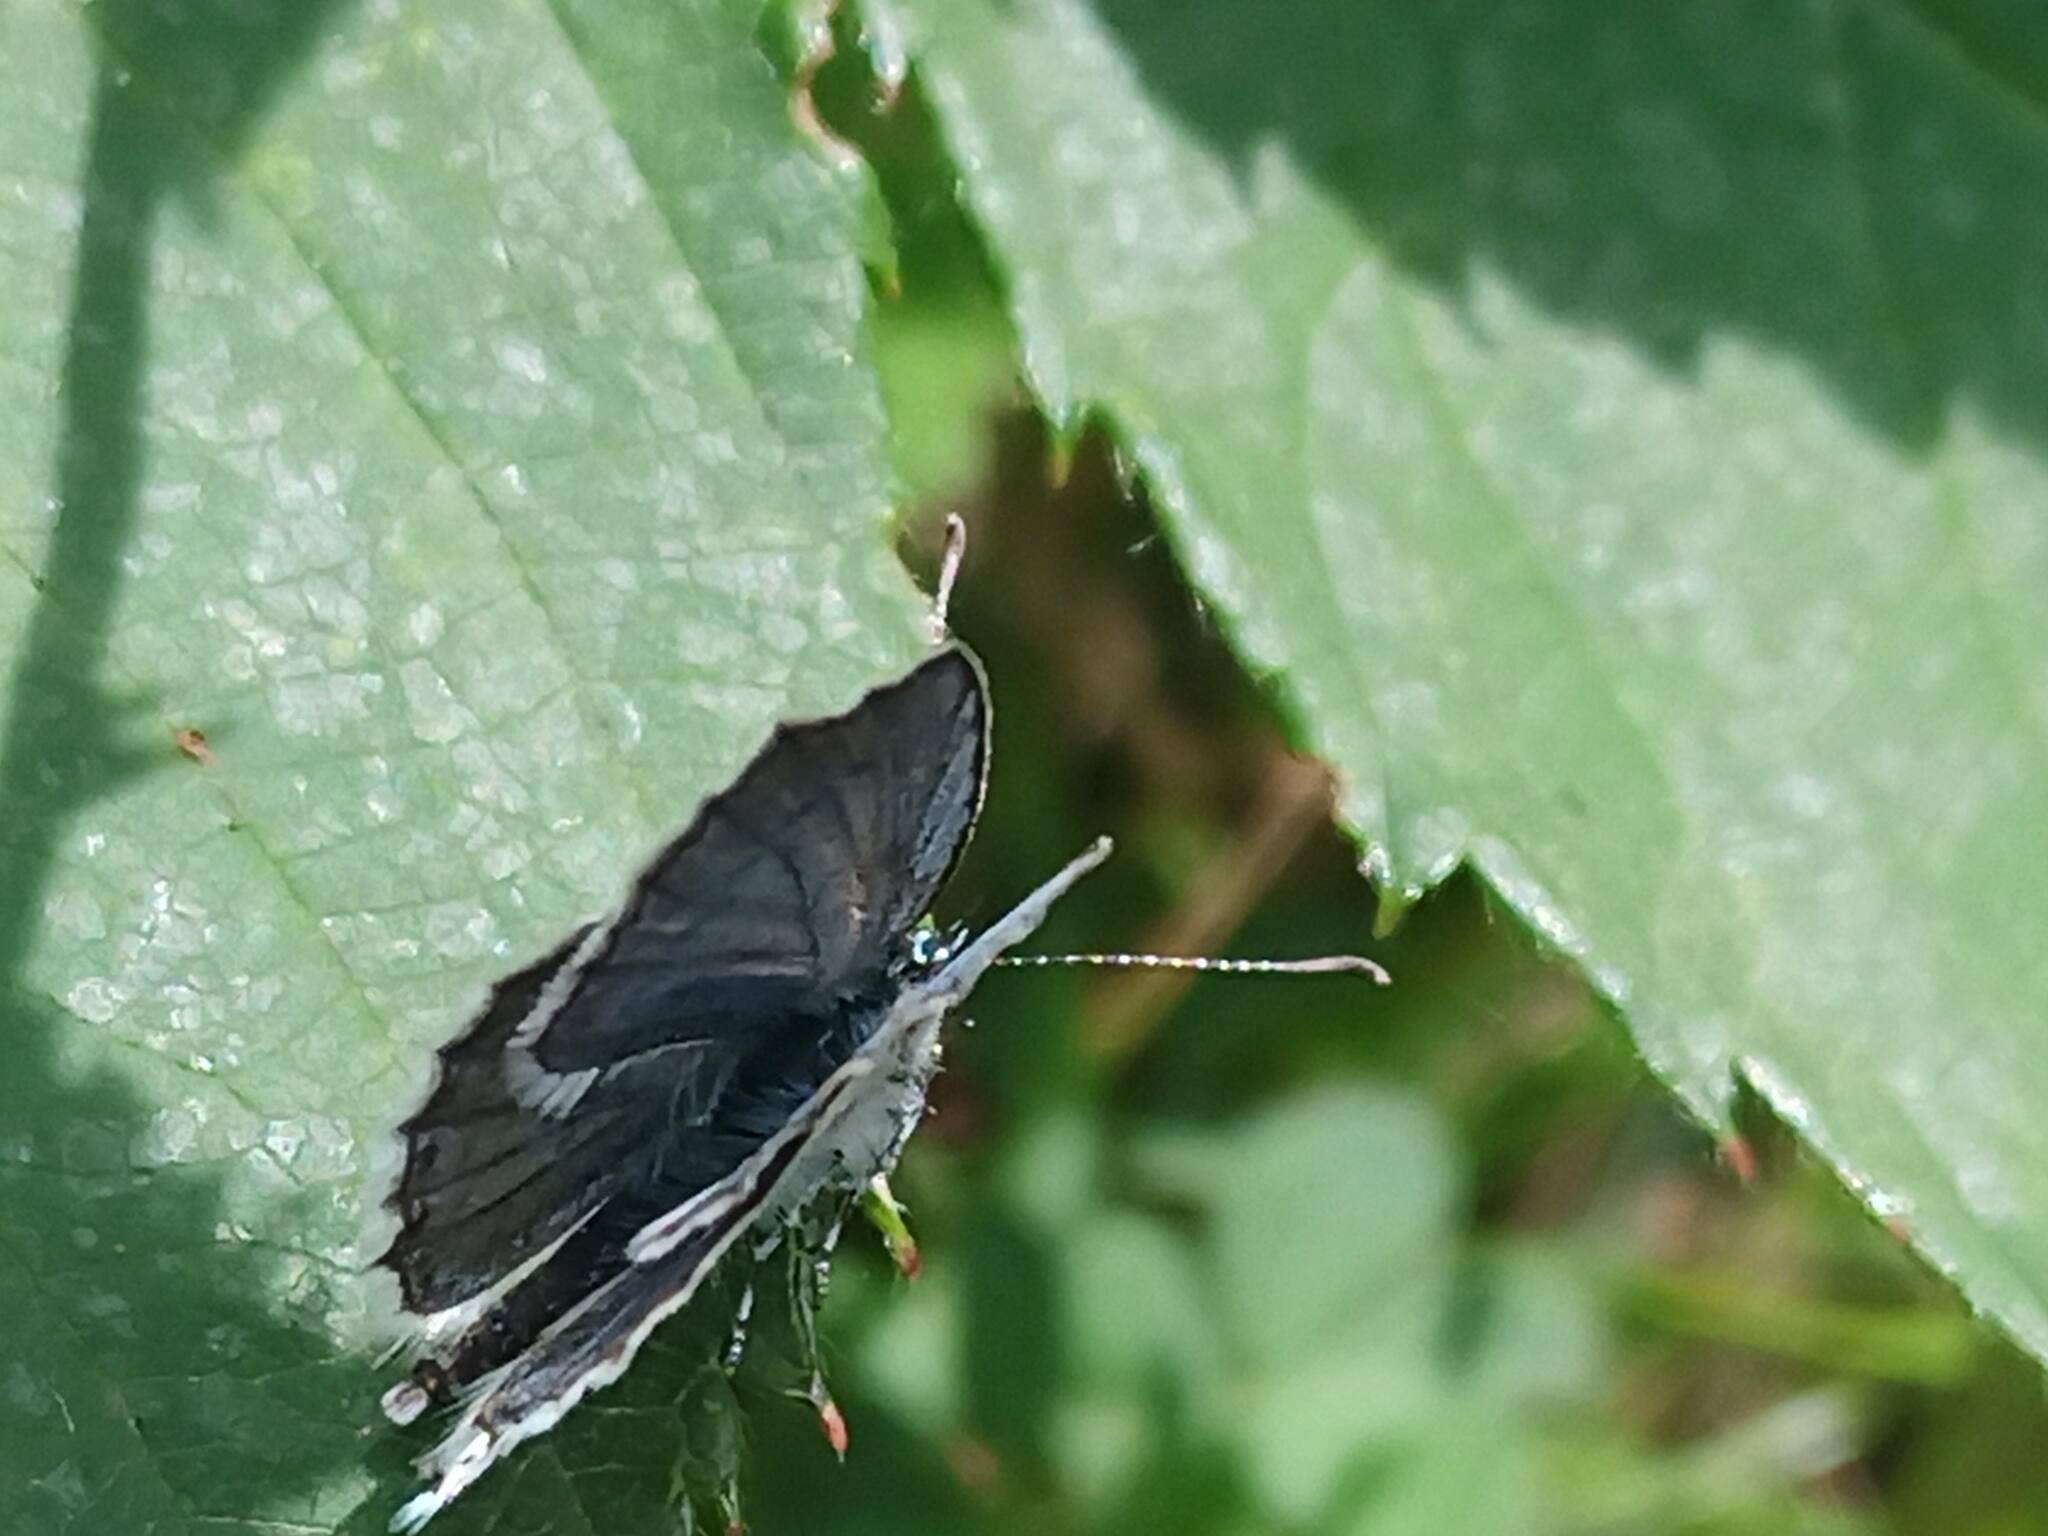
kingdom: Animalia
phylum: Arthropoda
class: Insecta
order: Lepidoptera
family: Lycaenidae
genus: Elkalyce
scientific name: Elkalyce argiades
